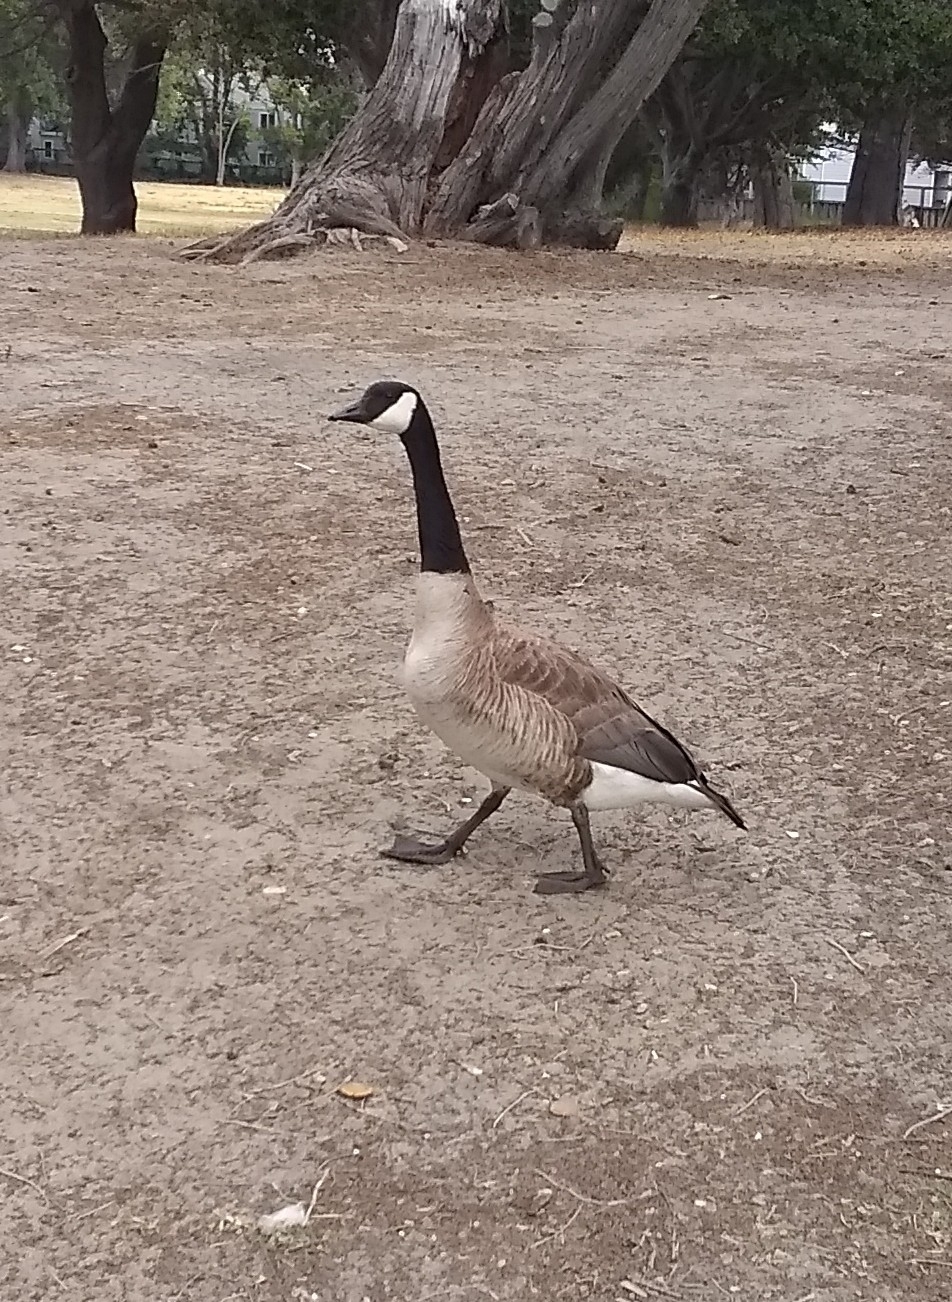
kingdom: Animalia
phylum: Chordata
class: Aves
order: Anseriformes
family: Anatidae
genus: Branta
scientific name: Branta canadensis
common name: Canada goose
